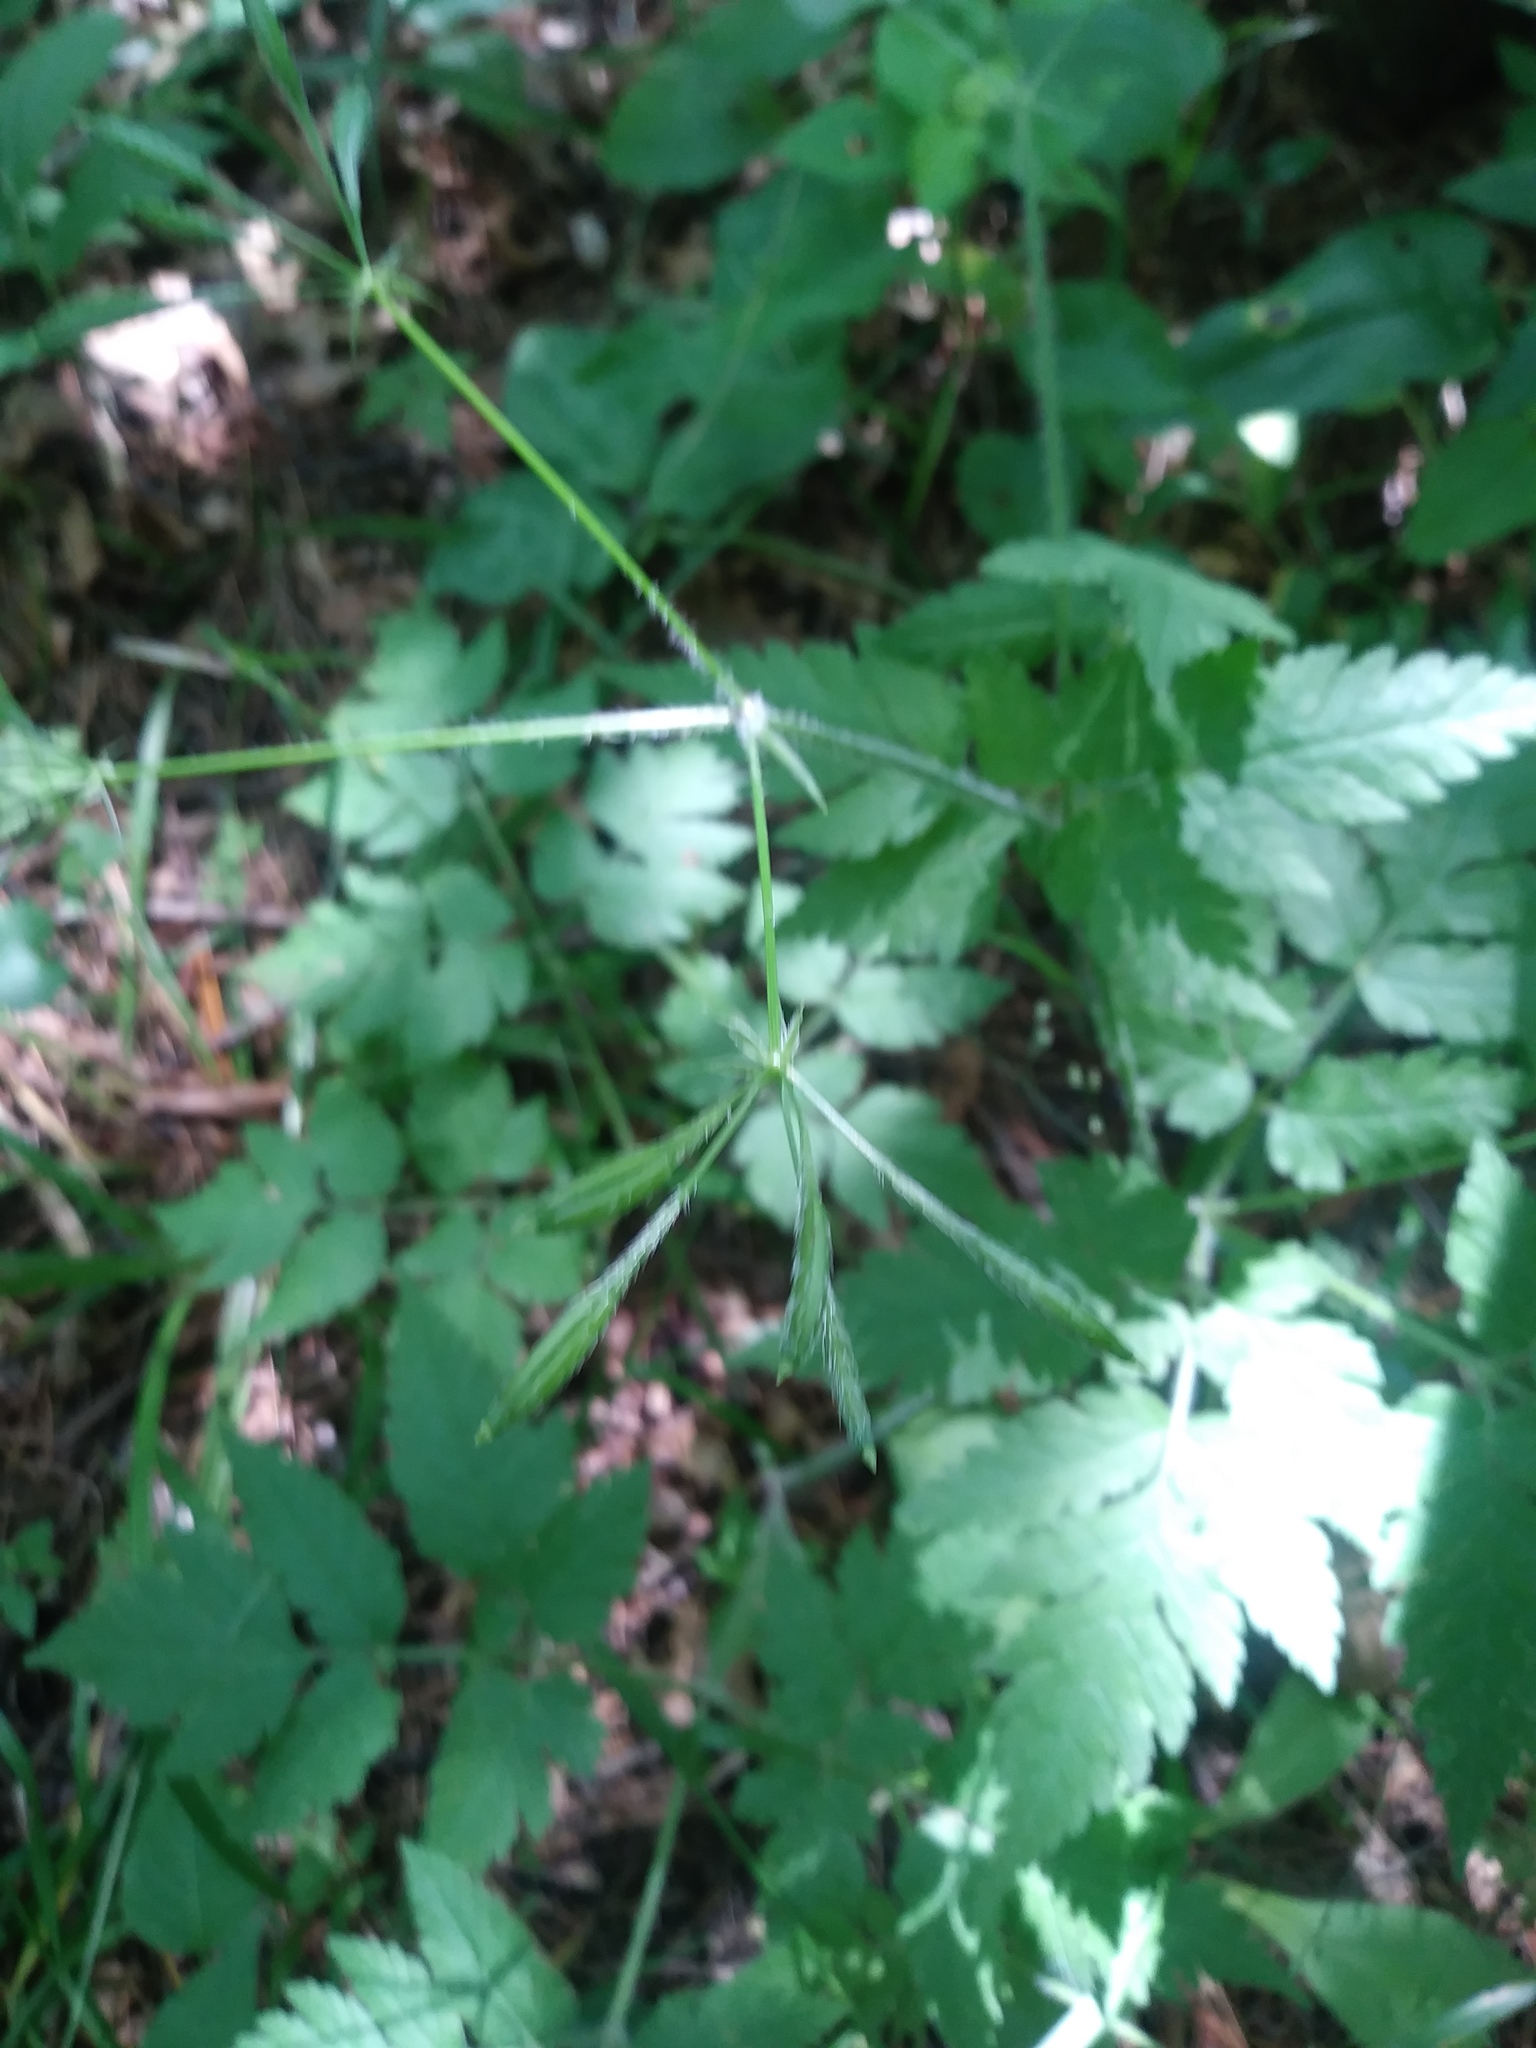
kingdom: Plantae
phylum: Tracheophyta
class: Magnoliopsida
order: Apiales
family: Apiaceae
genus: Osmorhiza
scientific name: Osmorhiza longistylis
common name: Smooth sweet cicely
